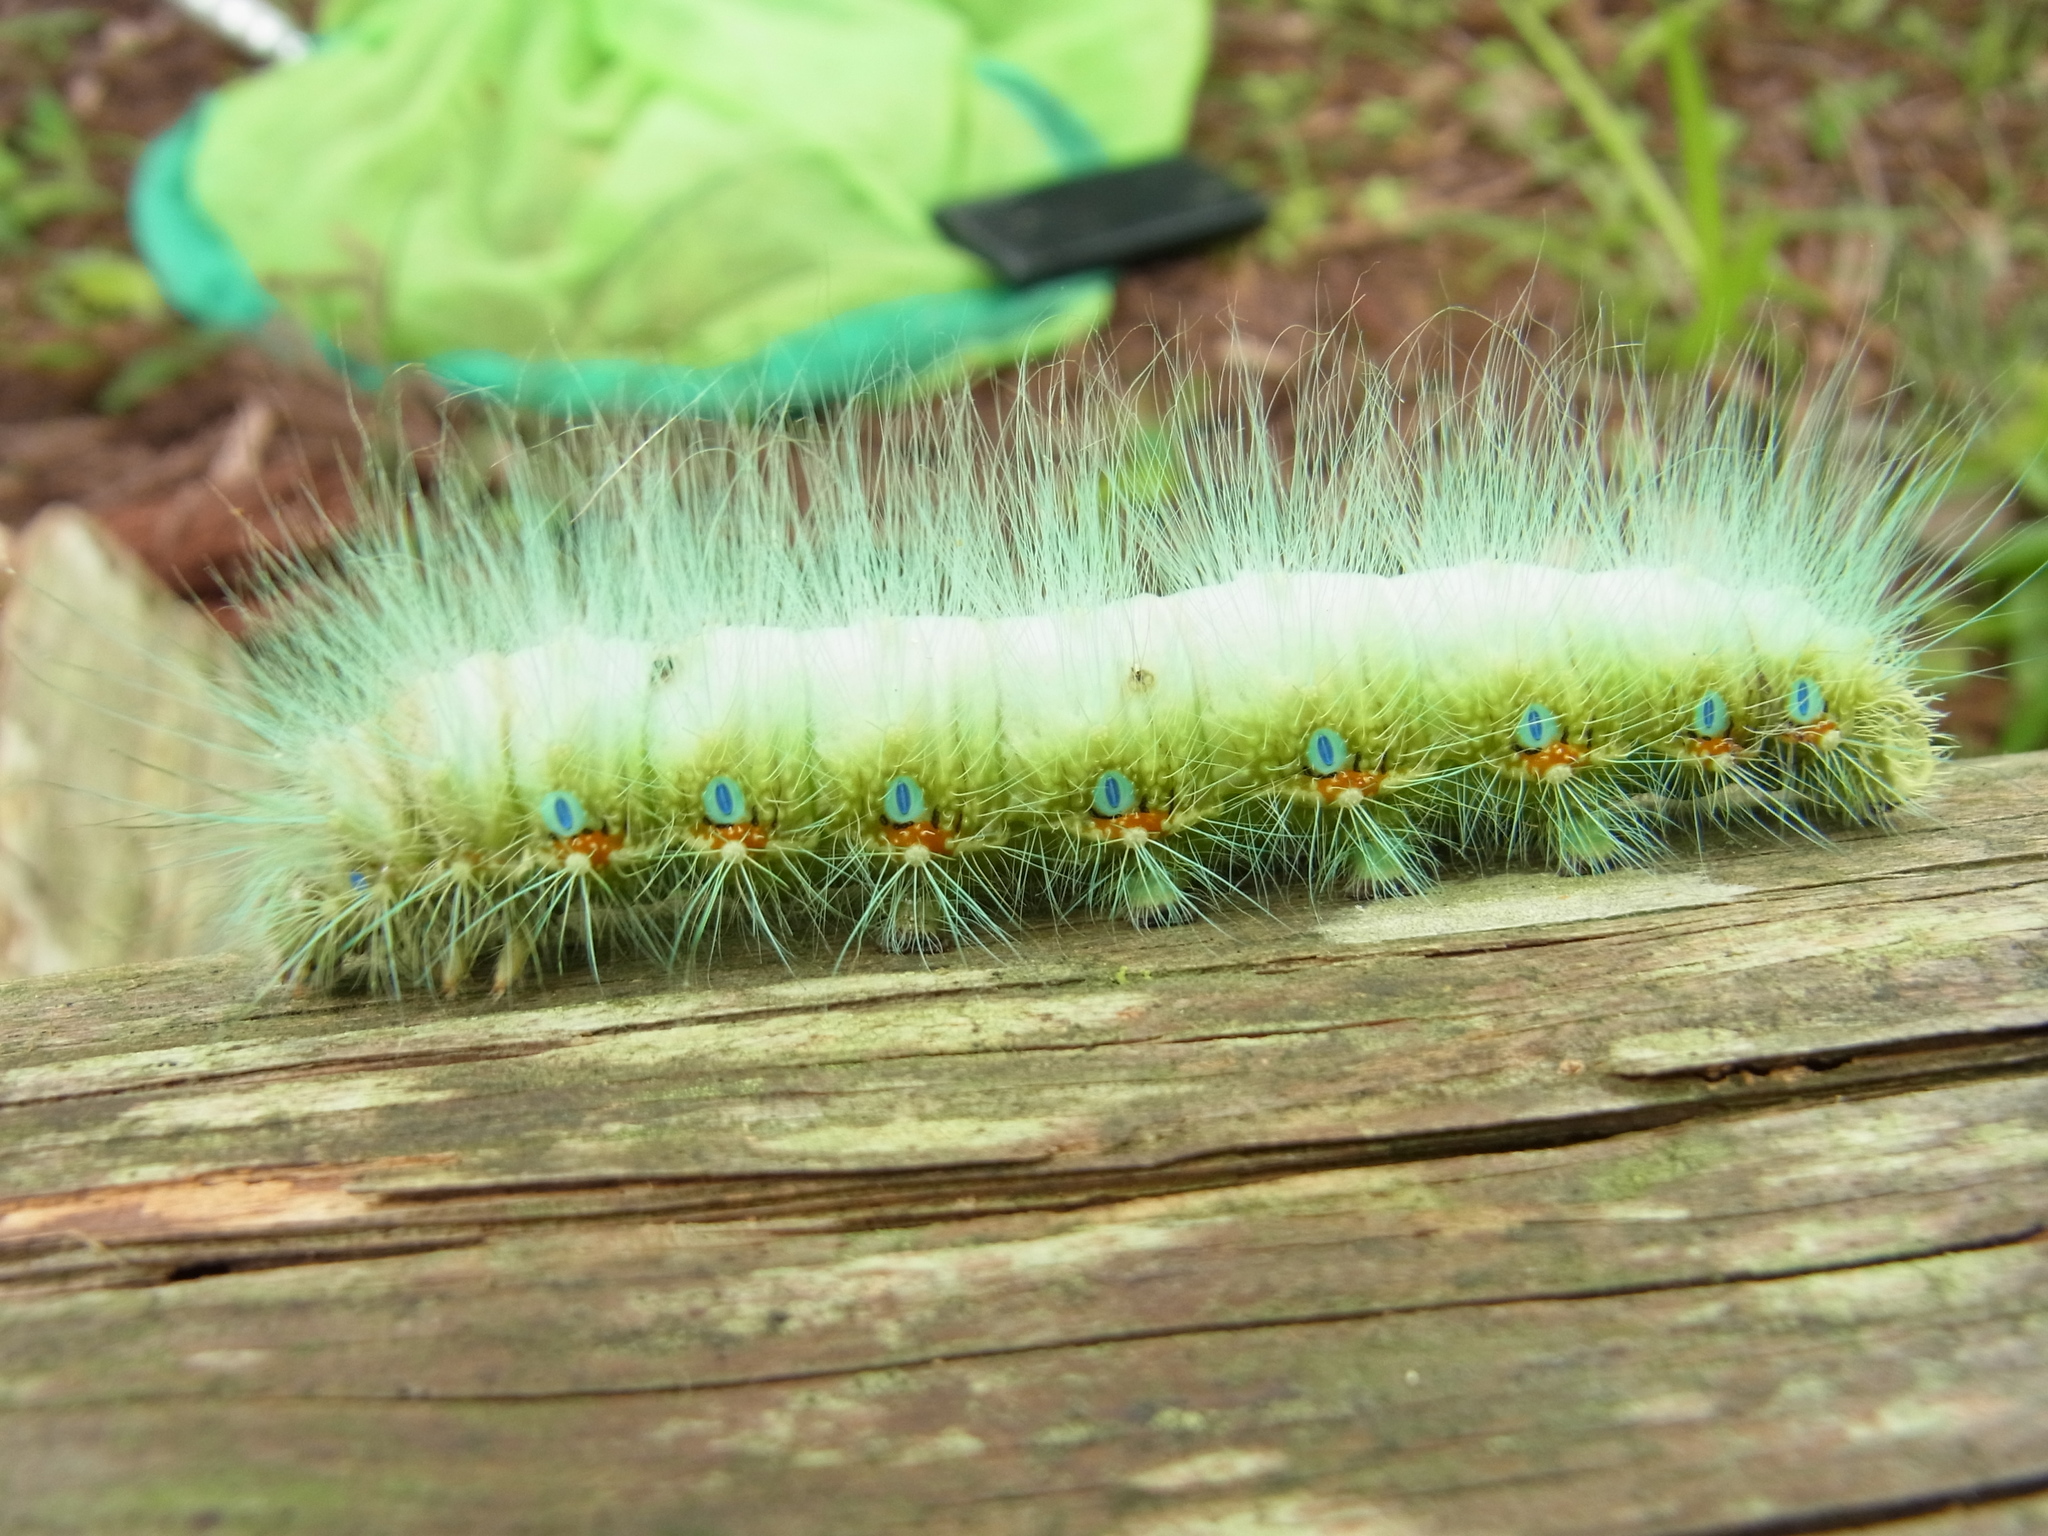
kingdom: Animalia
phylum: Arthropoda
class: Insecta
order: Lepidoptera
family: Saturniidae
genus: Saturnia
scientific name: Saturnia japonica
